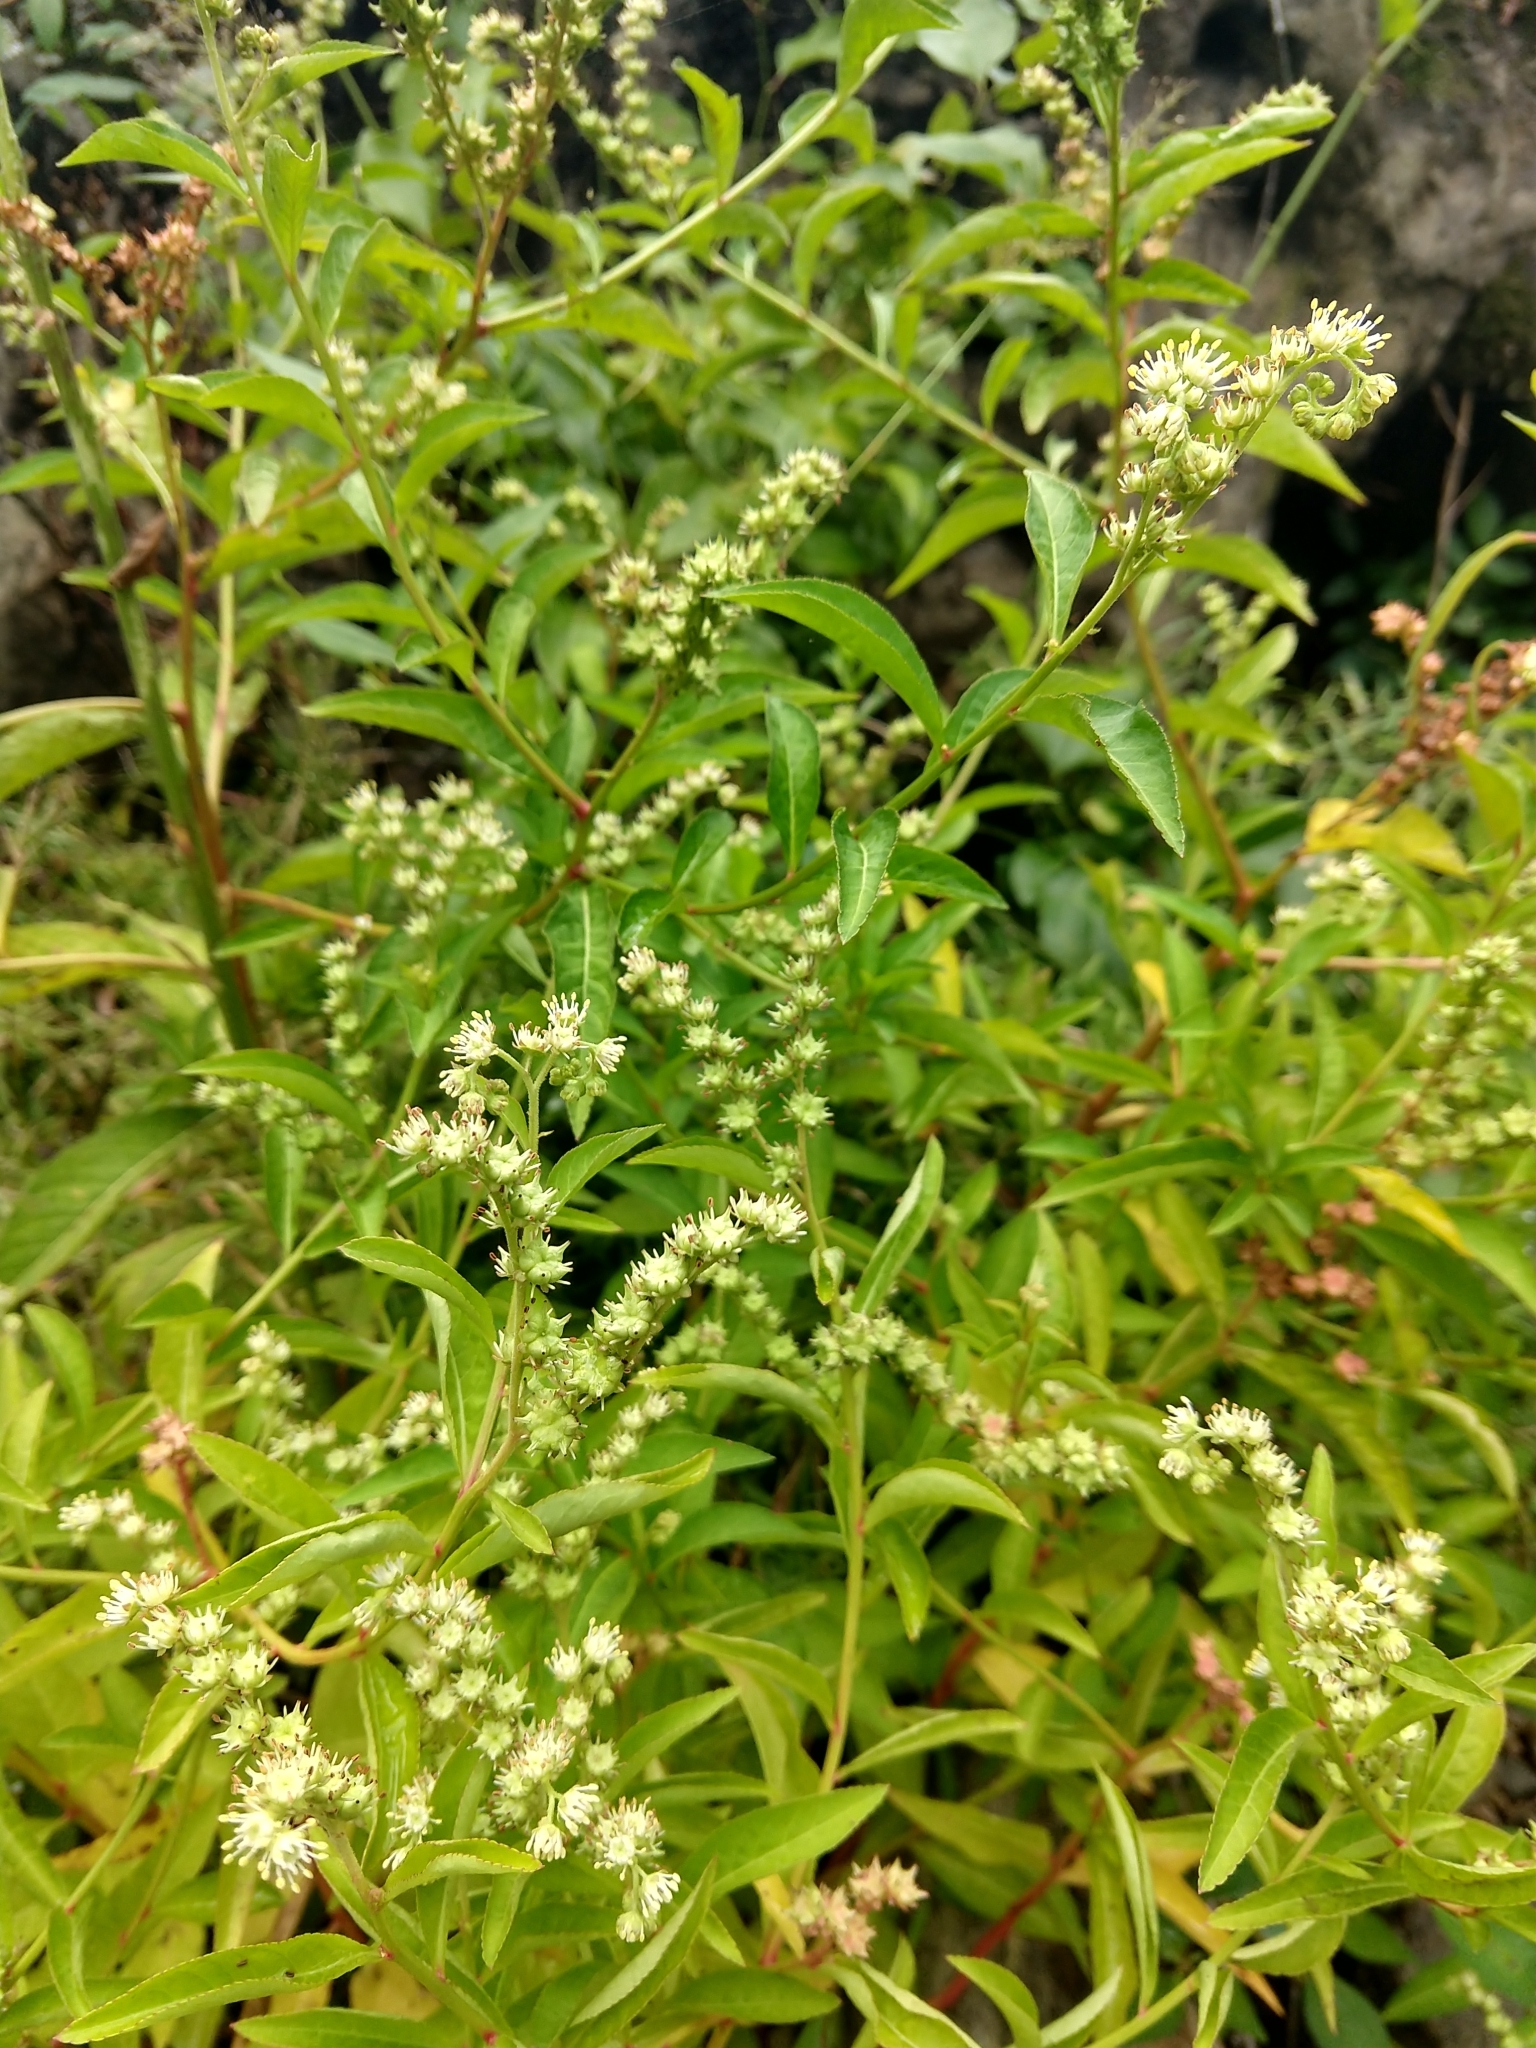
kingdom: Plantae
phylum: Tracheophyta
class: Magnoliopsida
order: Saxifragales
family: Penthoraceae
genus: Penthorum
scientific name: Penthorum sedoides
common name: Ditch stonecrop
